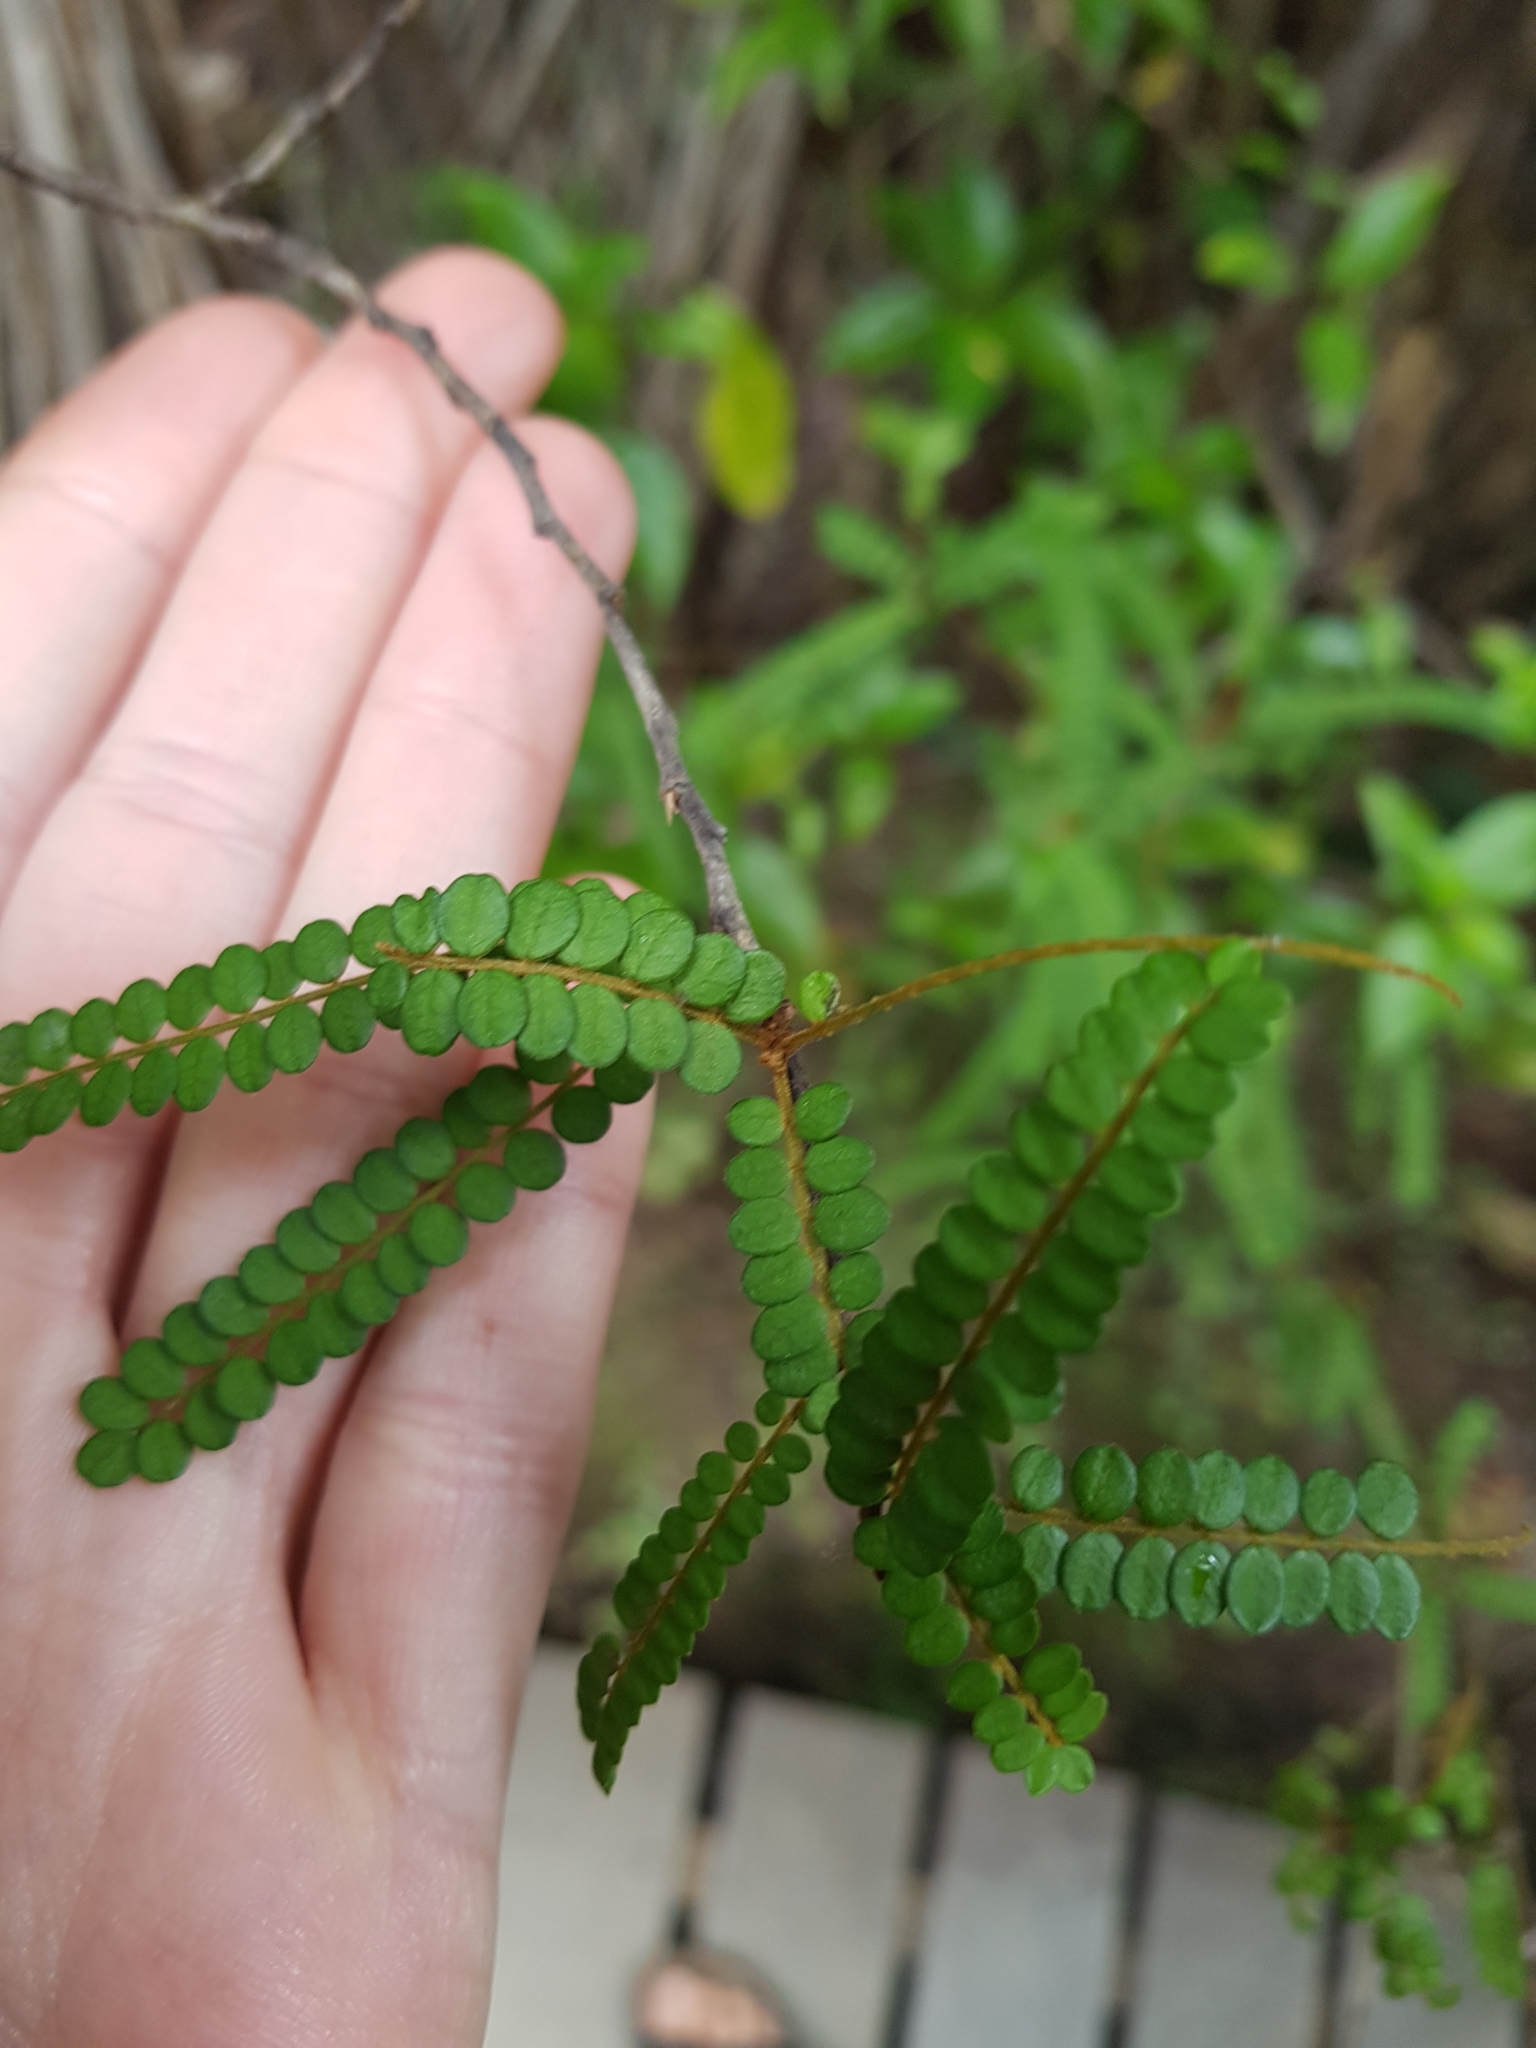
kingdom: Plantae
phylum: Tracheophyta
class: Magnoliopsida
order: Fabales
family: Fabaceae
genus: Sophora
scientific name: Sophora fulvida
